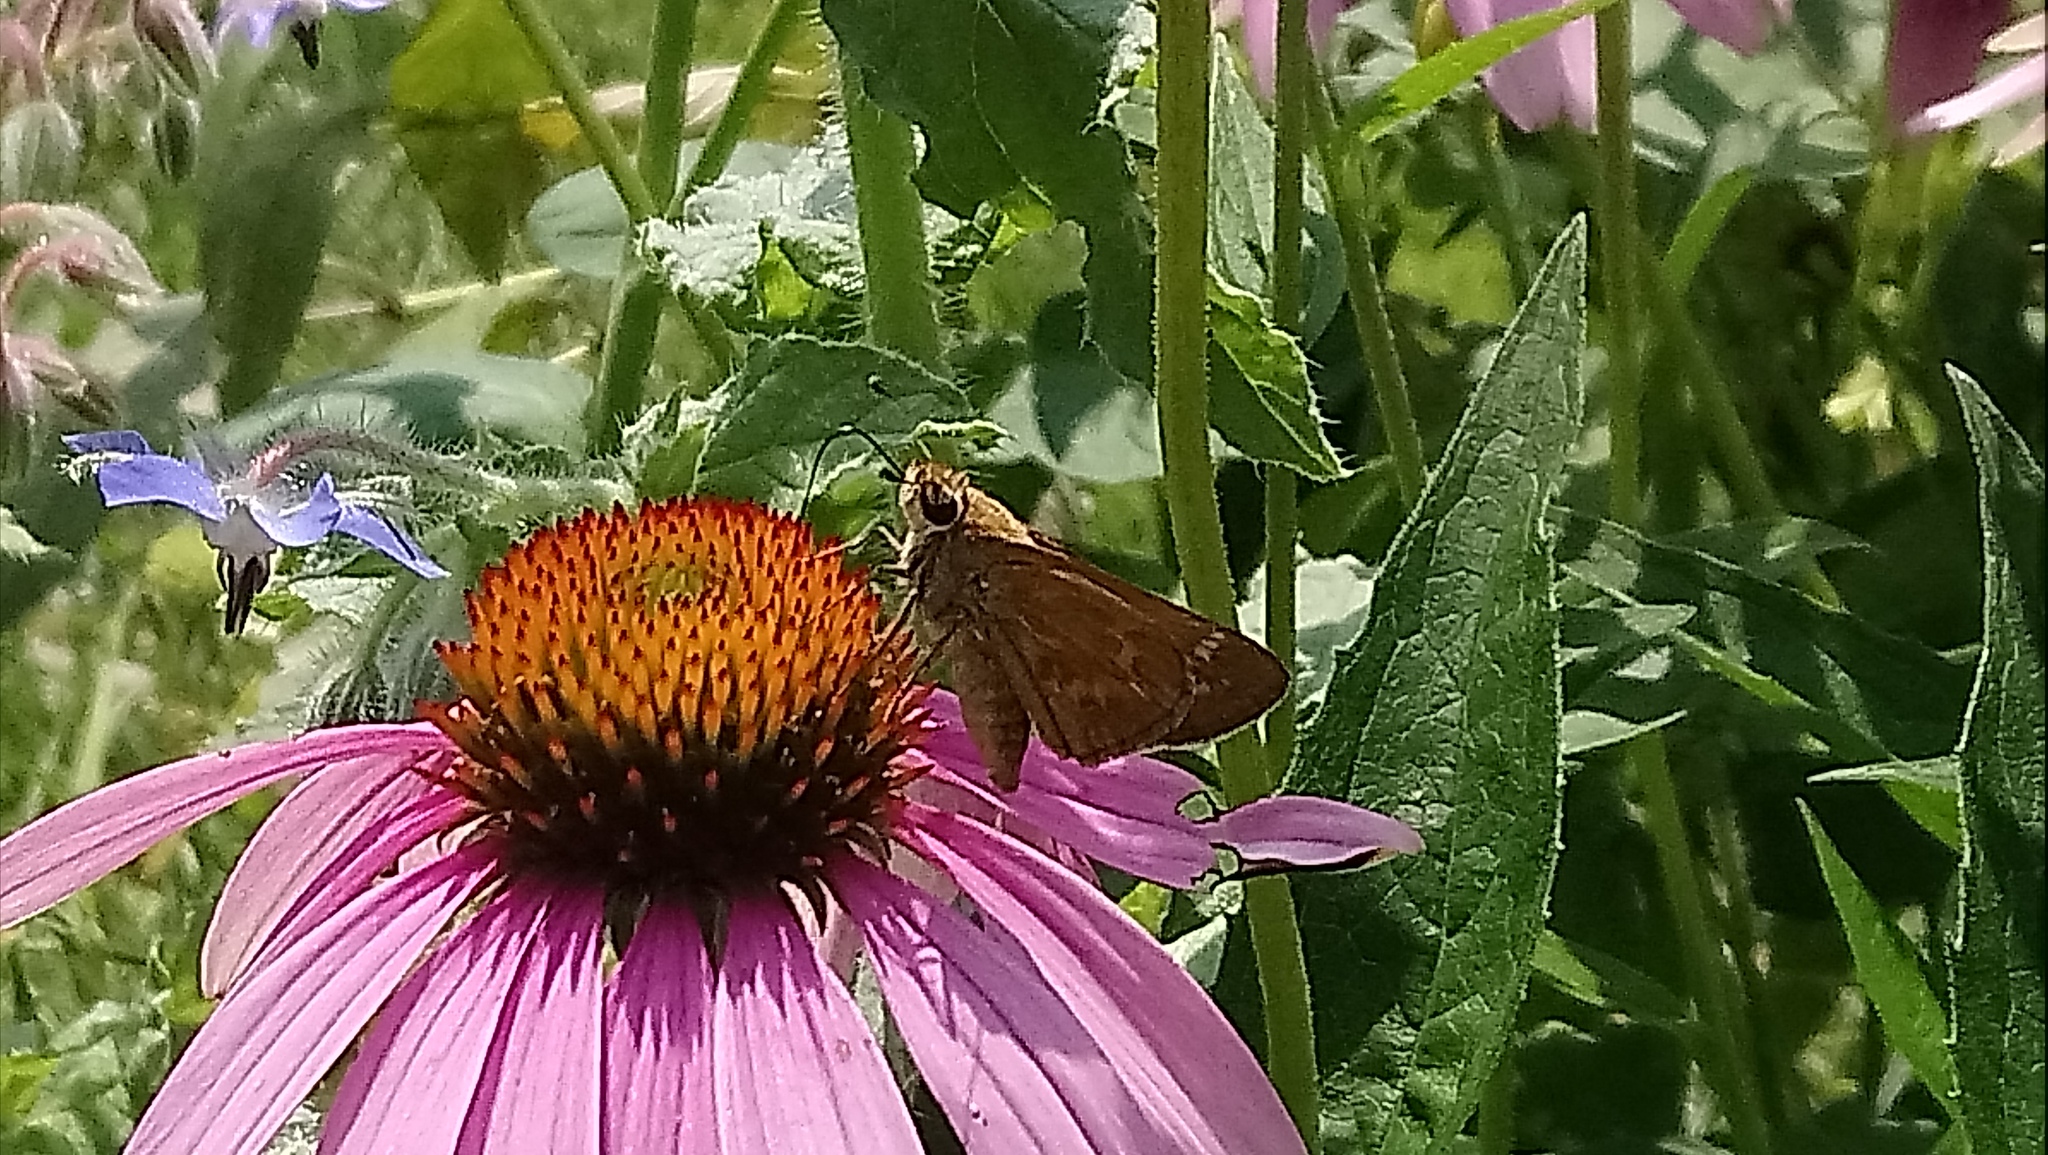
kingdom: Animalia
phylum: Arthropoda
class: Insecta
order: Lepidoptera
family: Hesperiidae
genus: Atalopedes
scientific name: Atalopedes
